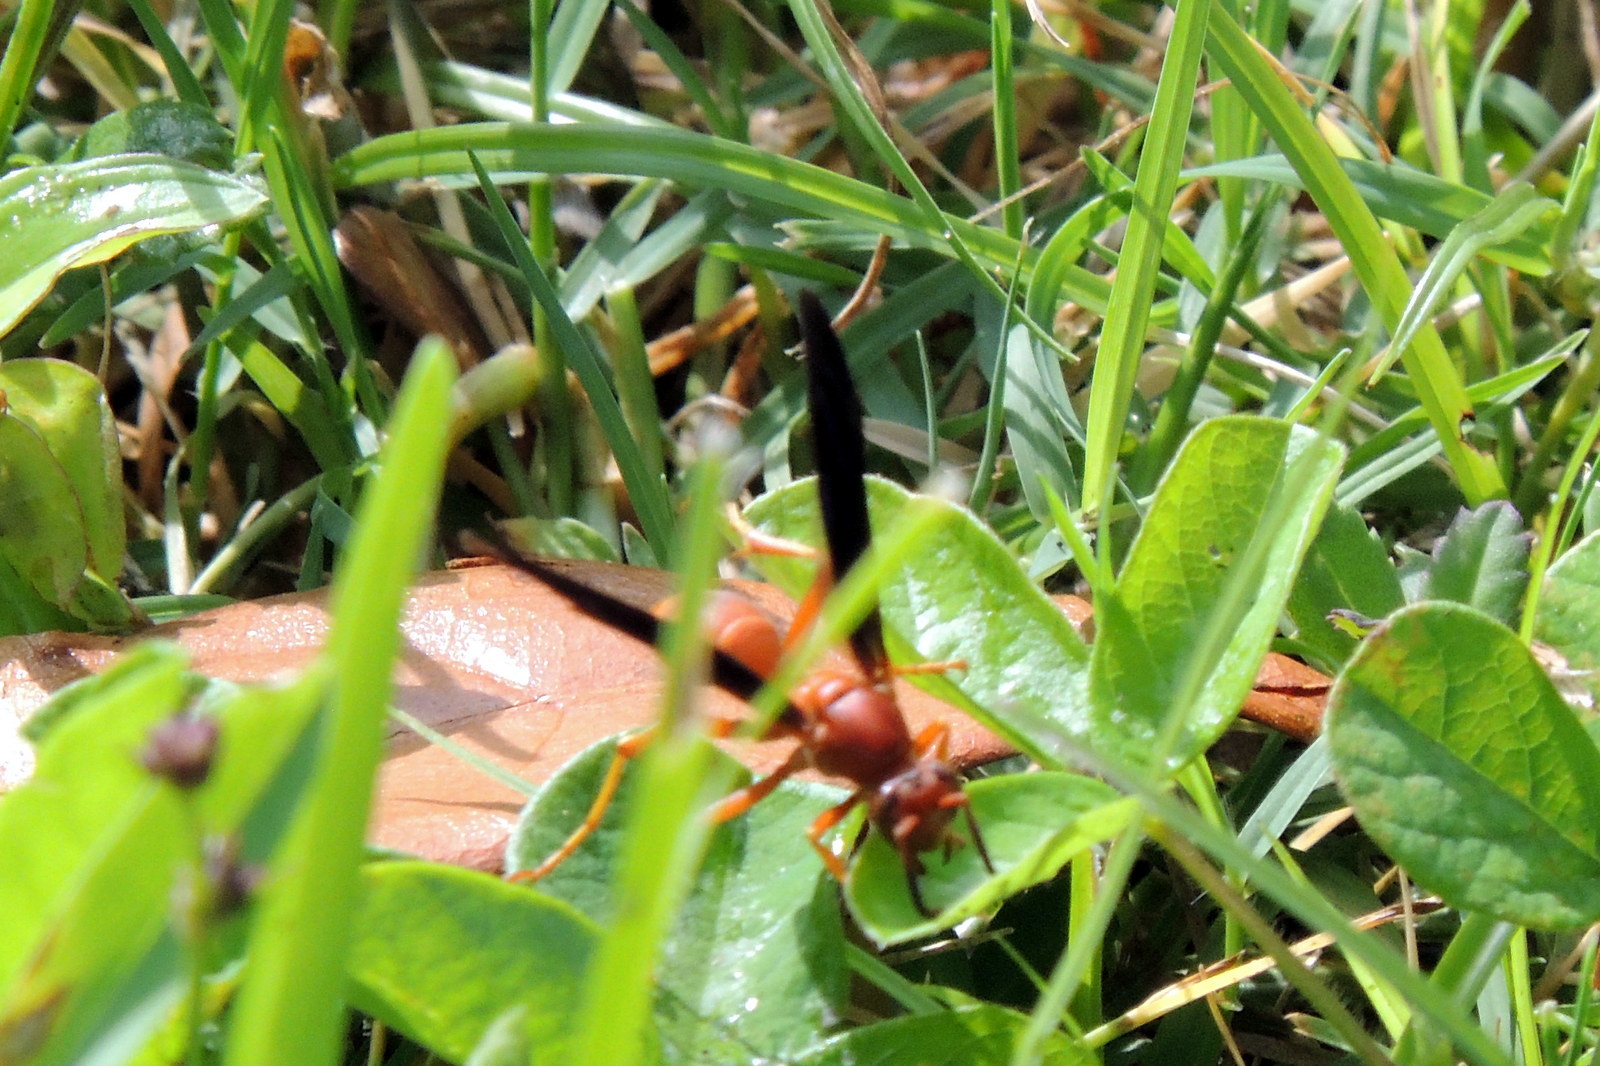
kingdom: Animalia
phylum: Arthropoda
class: Insecta
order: Hymenoptera
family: Vespidae
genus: Fuscopolistes
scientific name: Fuscopolistes
